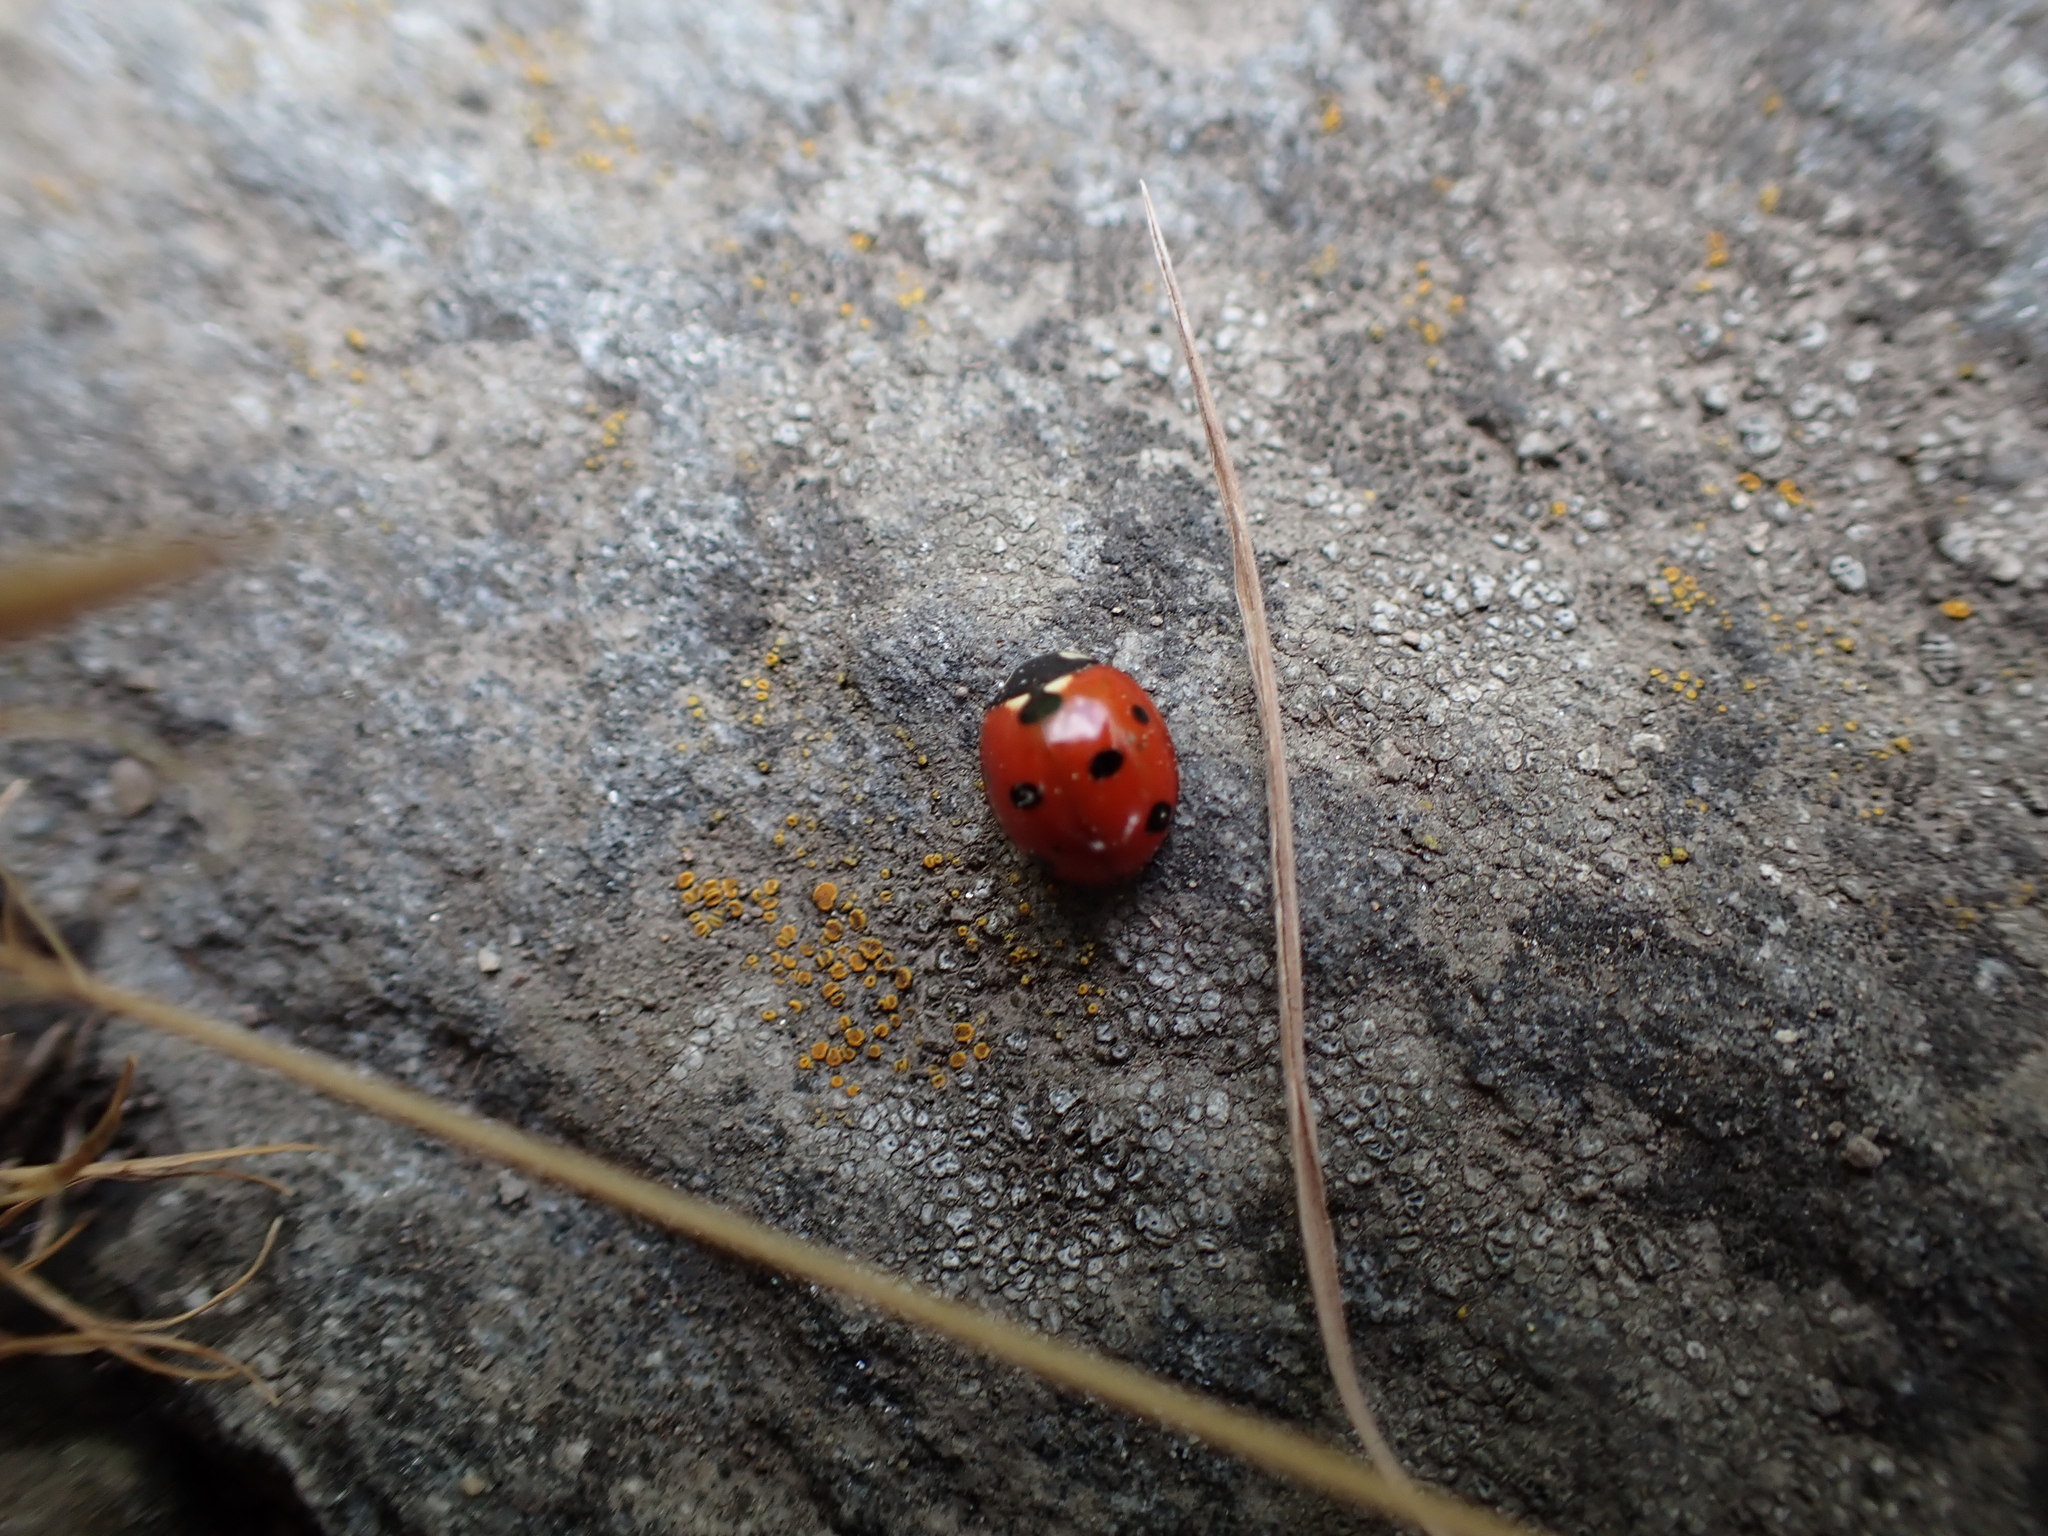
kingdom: Animalia
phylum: Arthropoda
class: Insecta
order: Coleoptera
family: Coccinellidae
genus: Coccinella
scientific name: Coccinella septempunctata
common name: Sevenspotted lady beetle
